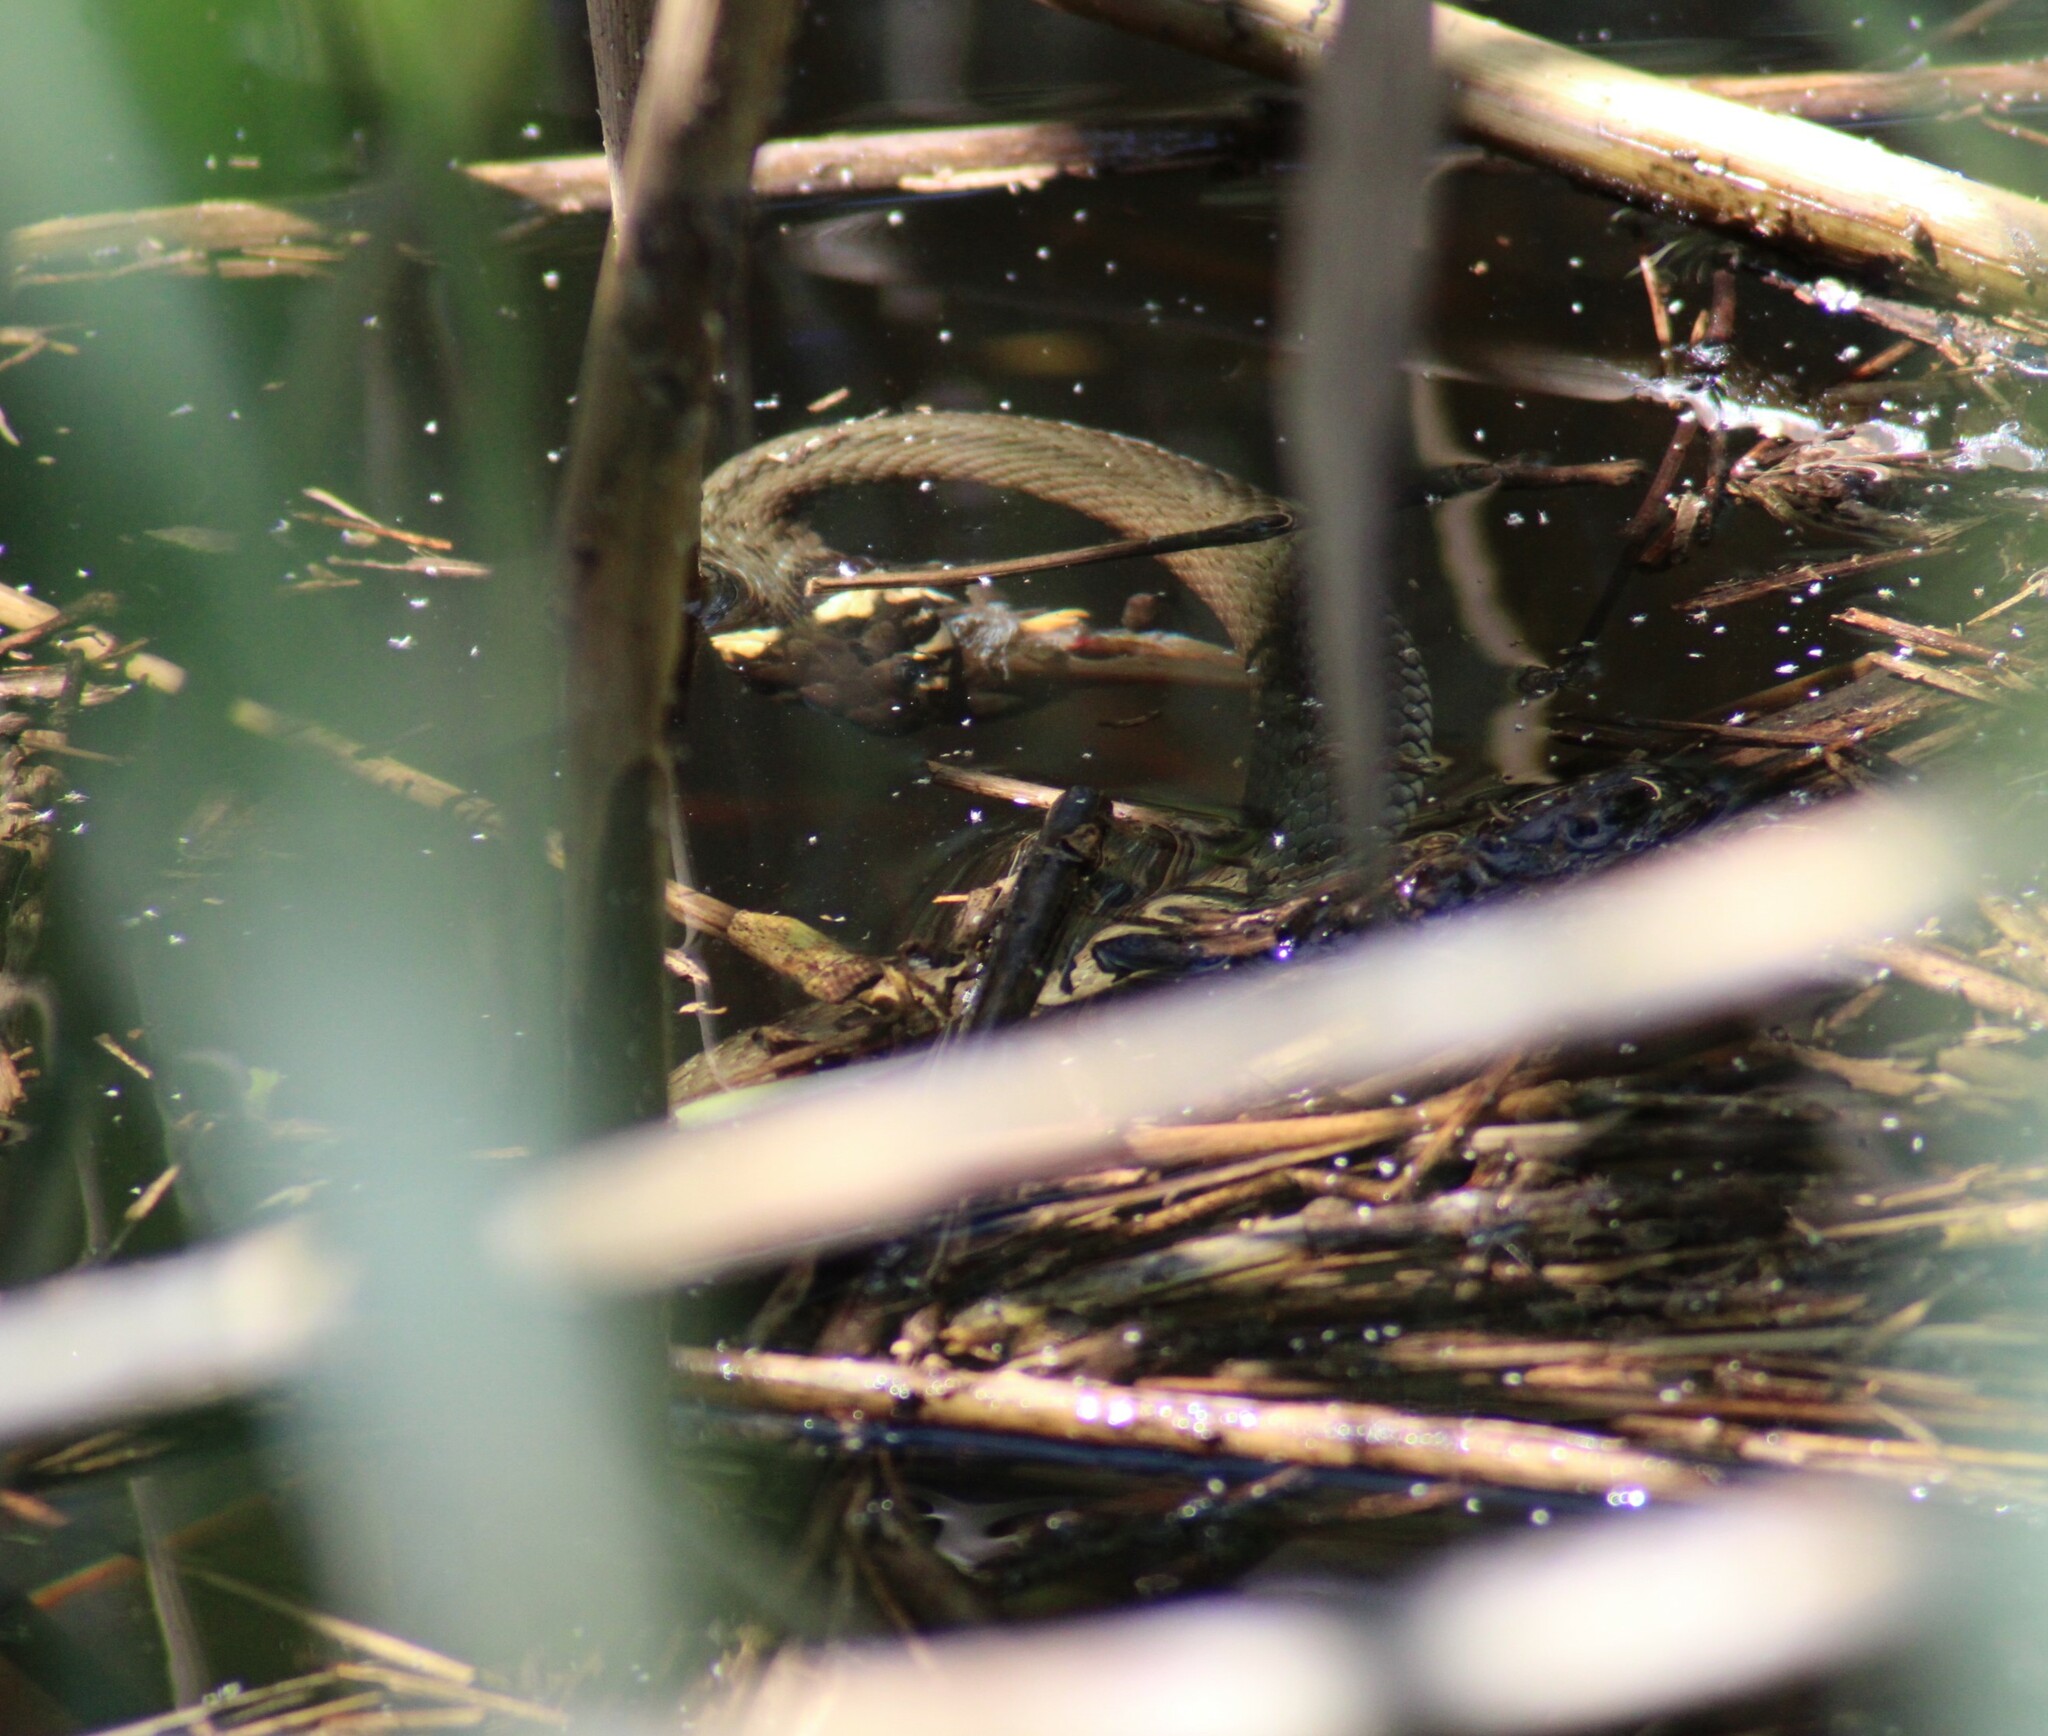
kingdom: Animalia
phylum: Chordata
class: Squamata
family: Colubridae
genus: Natrix
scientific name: Natrix natrix
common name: Grass snake
